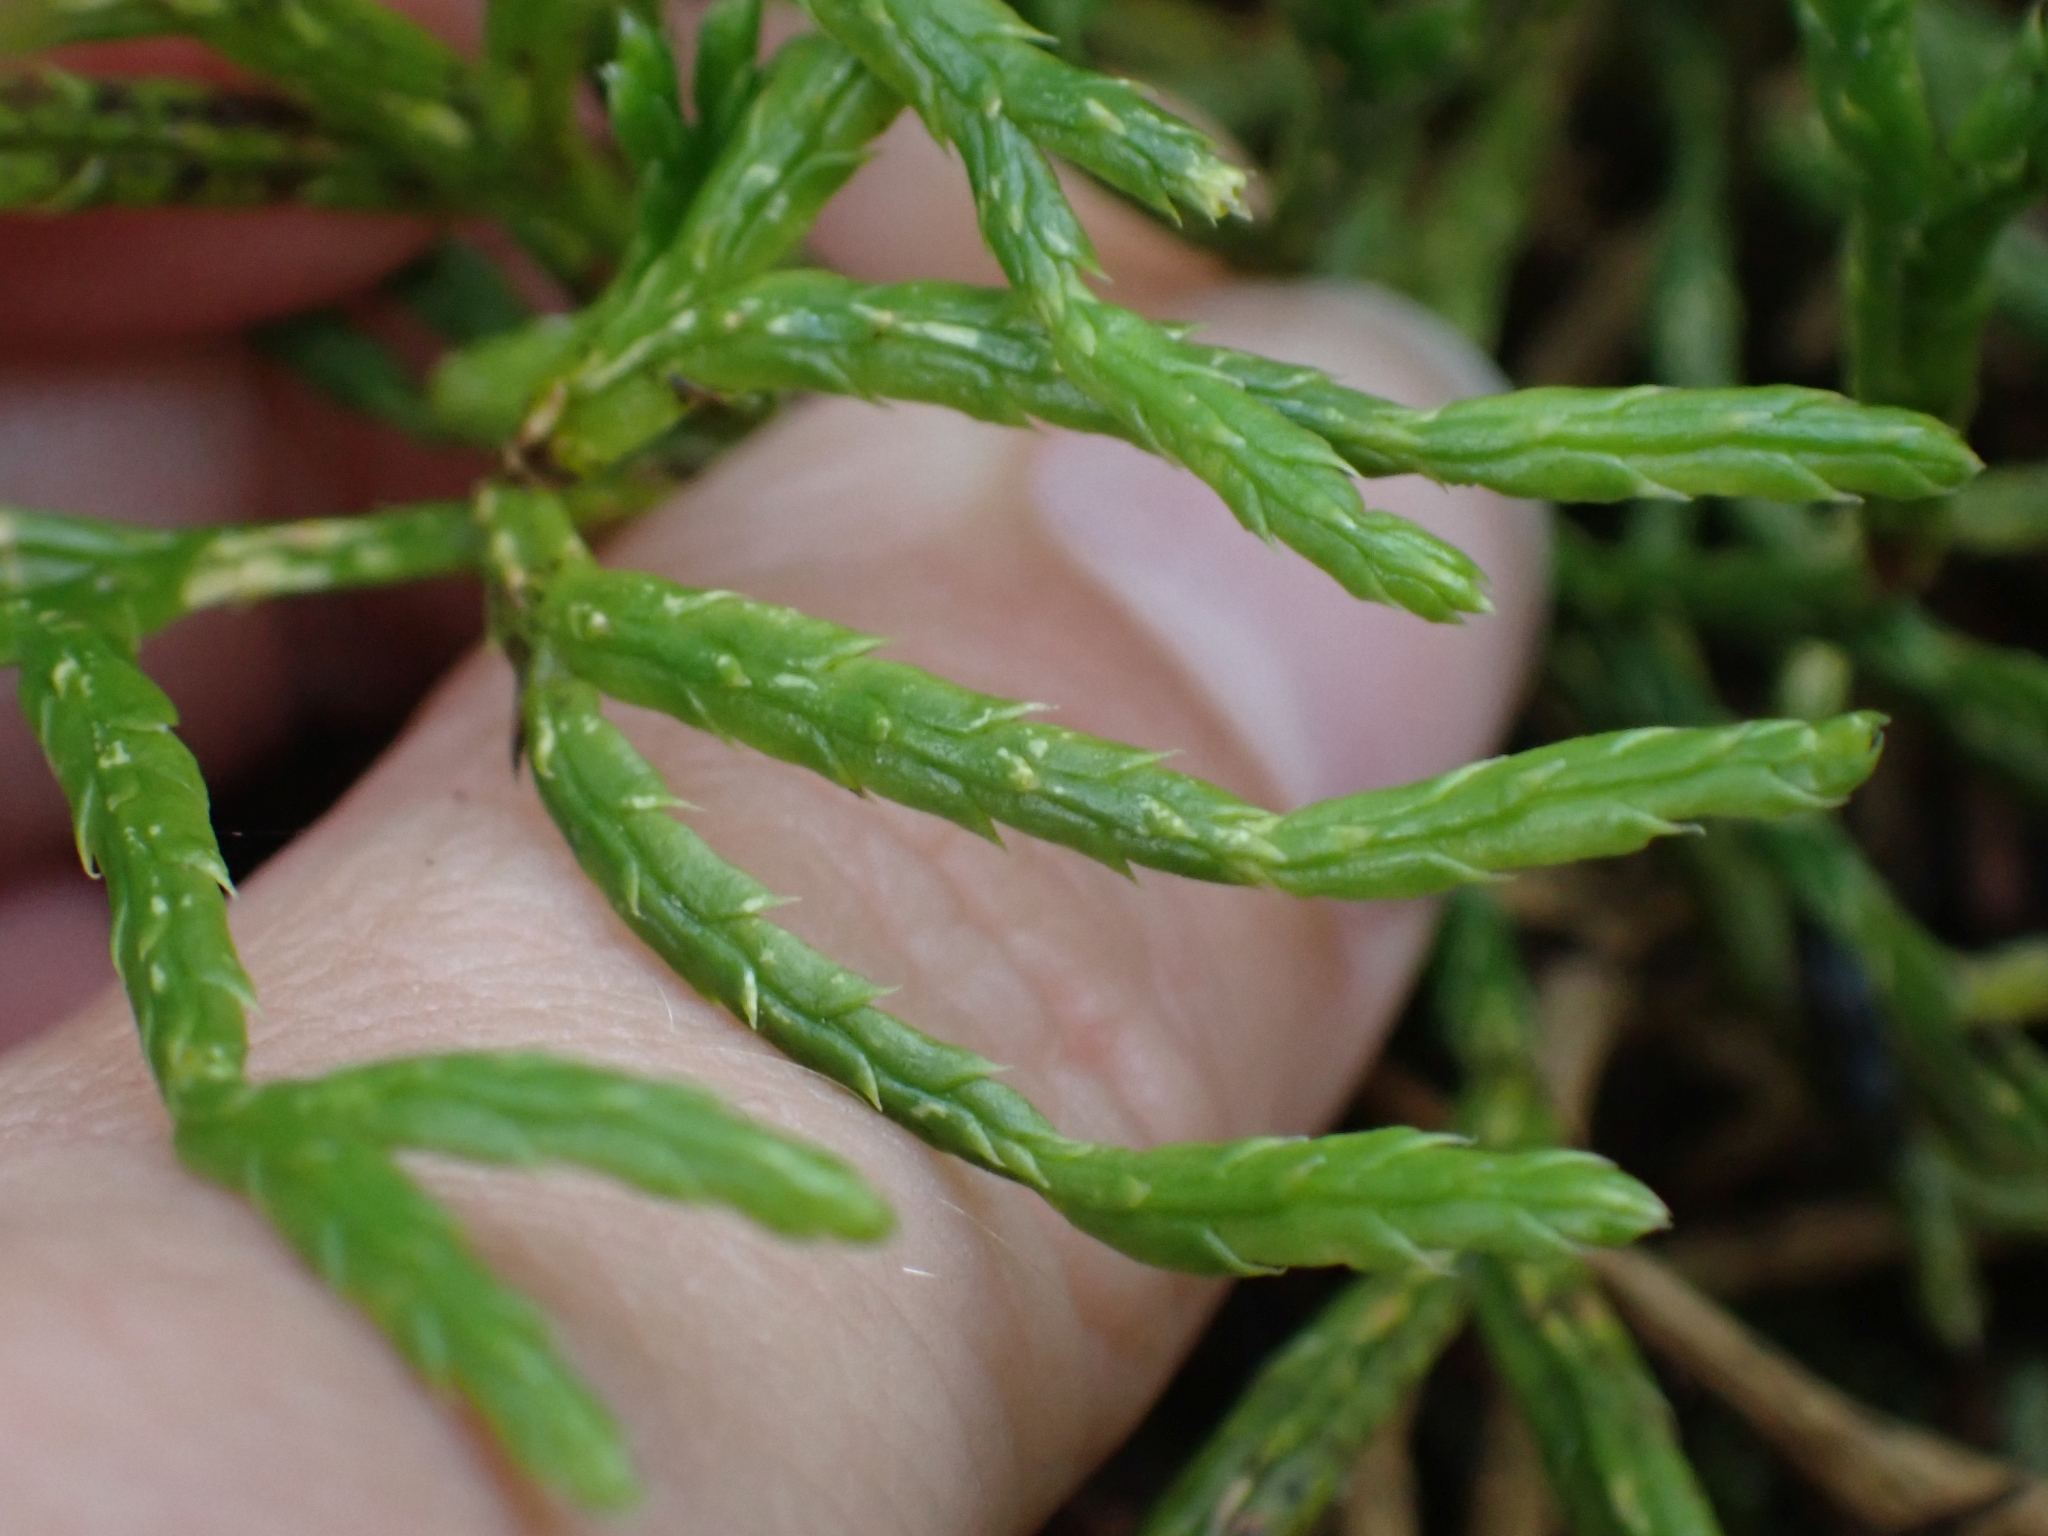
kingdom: Plantae
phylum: Tracheophyta
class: Lycopodiopsida
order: Lycopodiales
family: Lycopodiaceae
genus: Diphasiastrum
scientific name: Diphasiastrum complanatum
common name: Northern running-pine
